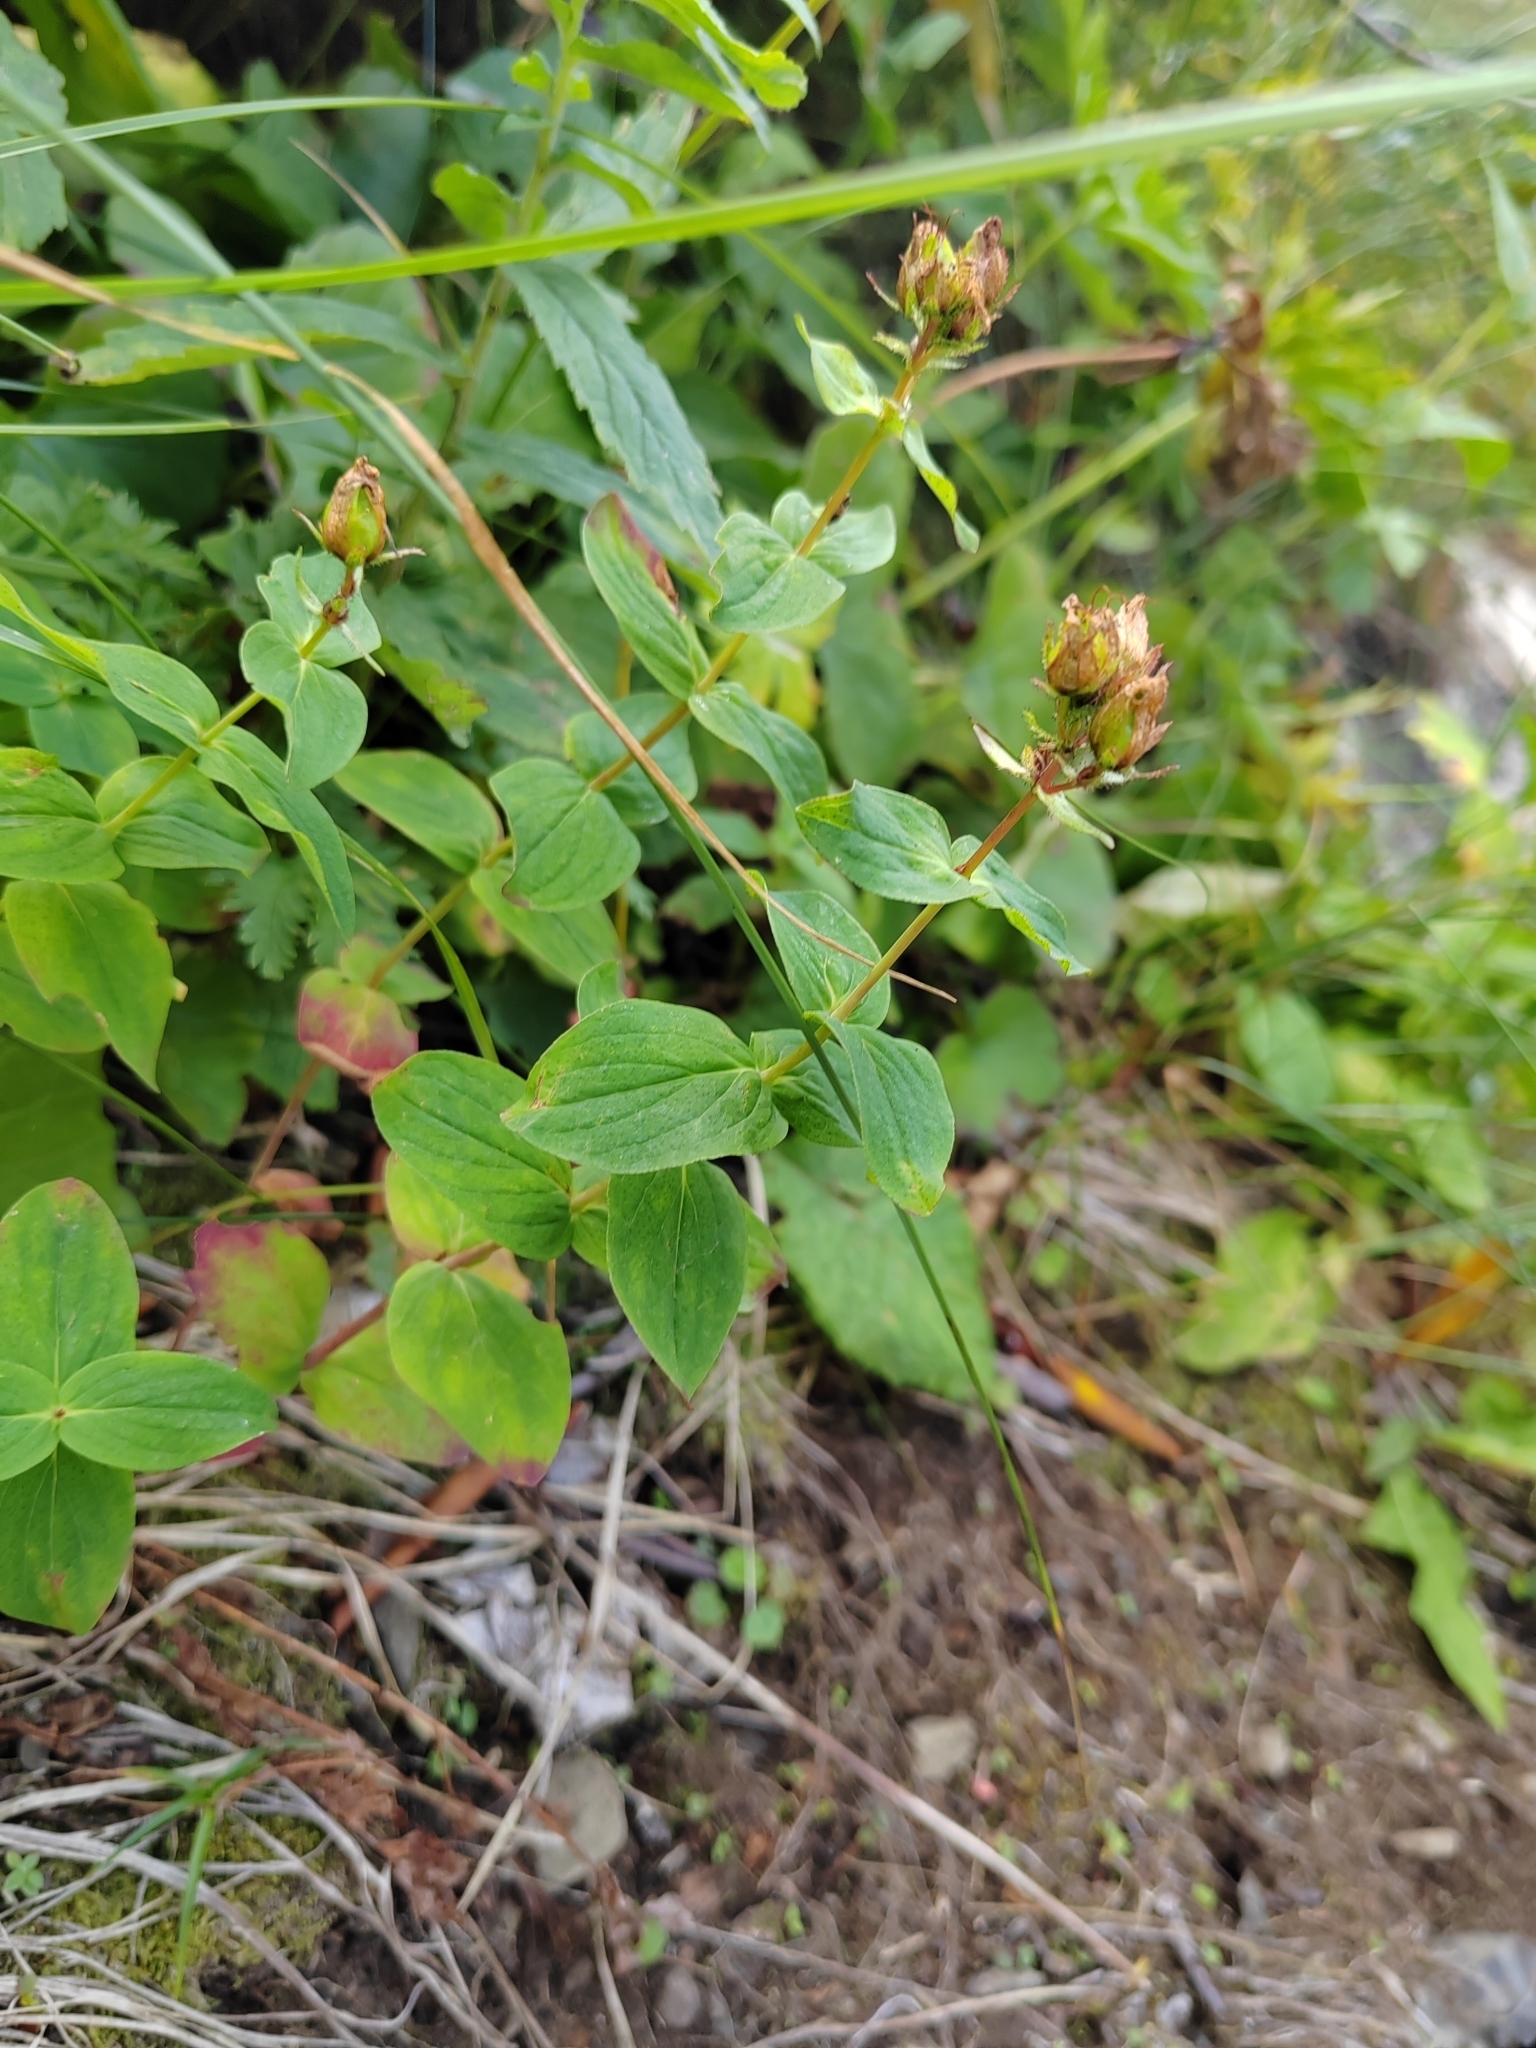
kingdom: Plantae
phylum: Tracheophyta
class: Magnoliopsida
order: Malpighiales
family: Hypericaceae
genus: Hypericum
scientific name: Hypericum bithynicum
